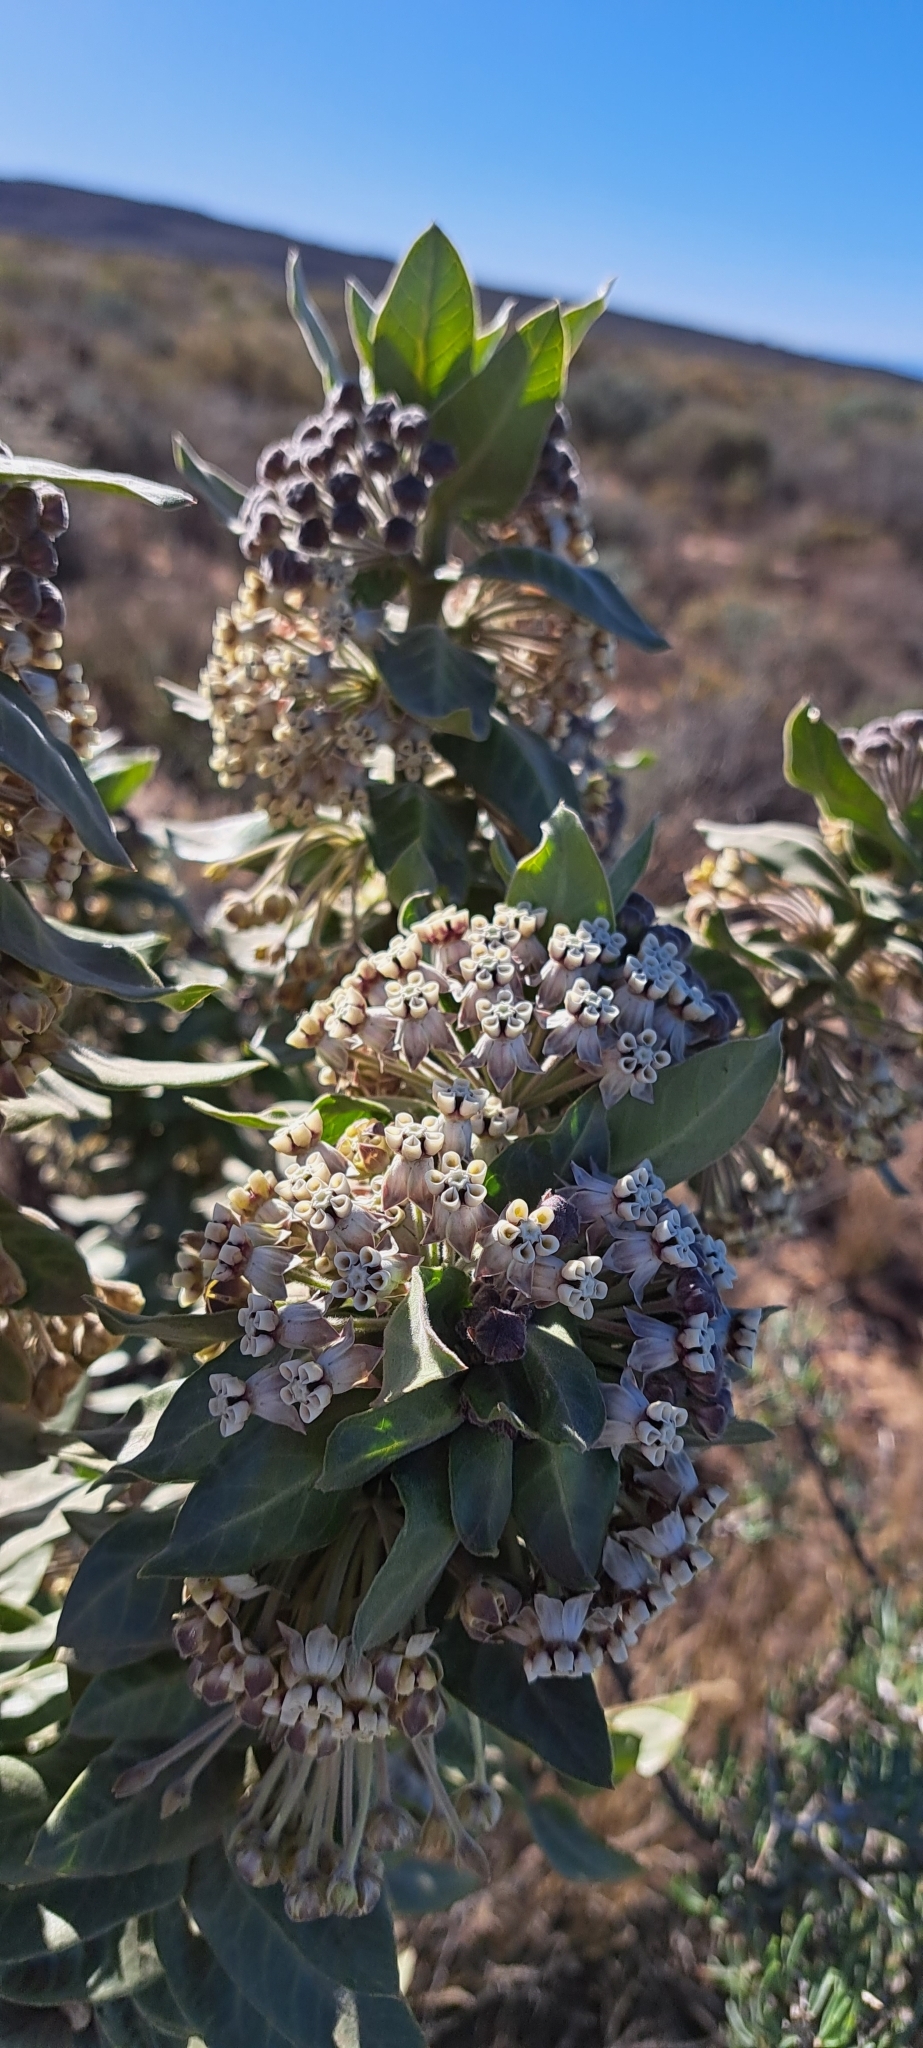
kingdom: Plantae
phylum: Tracheophyta
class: Magnoliopsida
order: Gentianales
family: Apocynaceae
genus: Gomphocarpus
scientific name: Gomphocarpus cancellatus
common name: Wild cotton
